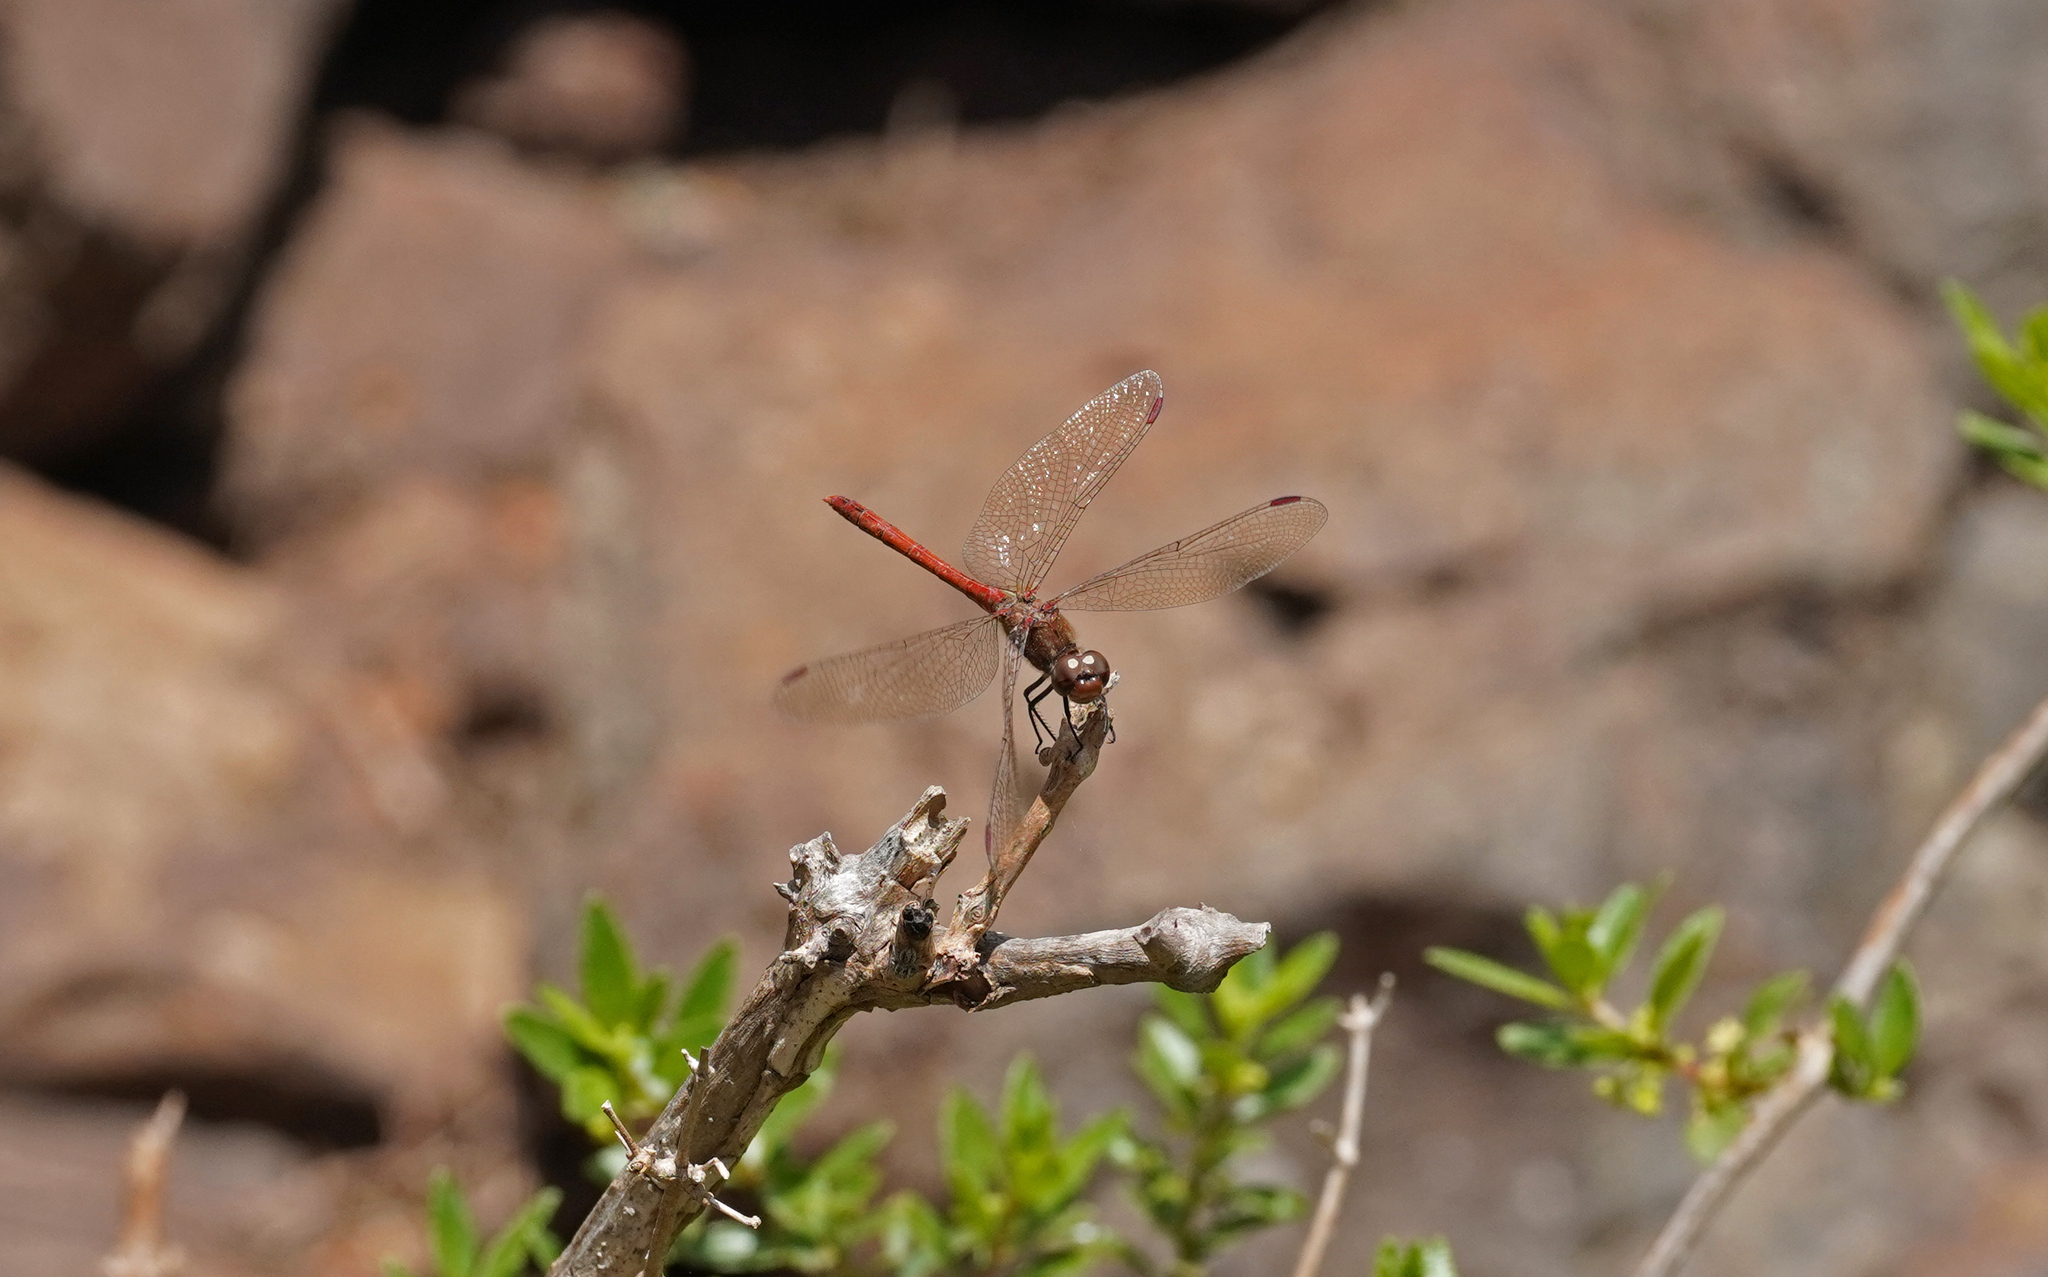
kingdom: Animalia
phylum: Arthropoda
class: Insecta
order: Odonata
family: Libellulidae
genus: Sympetrum
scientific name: Sympetrum nigrifemur
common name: Island darter
